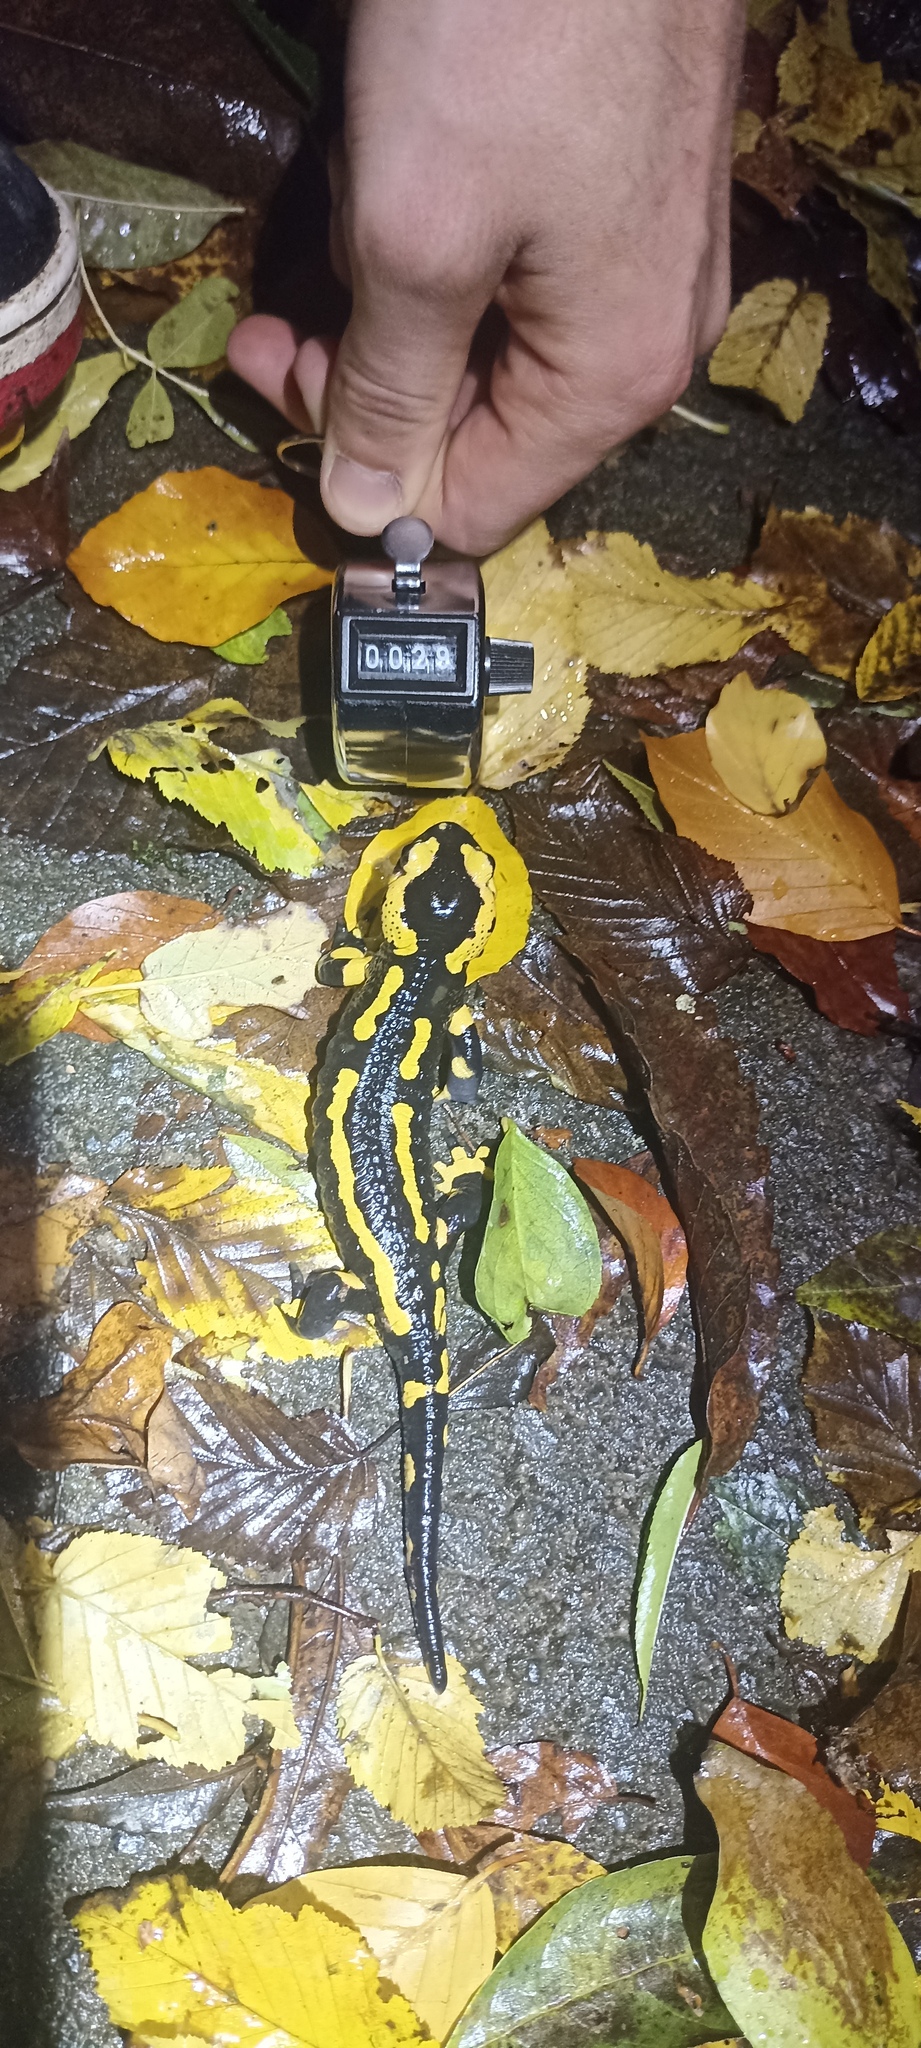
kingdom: Animalia
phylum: Chordata
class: Amphibia
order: Caudata
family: Salamandridae
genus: Salamandra
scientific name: Salamandra salamandra
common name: Fire salamander
